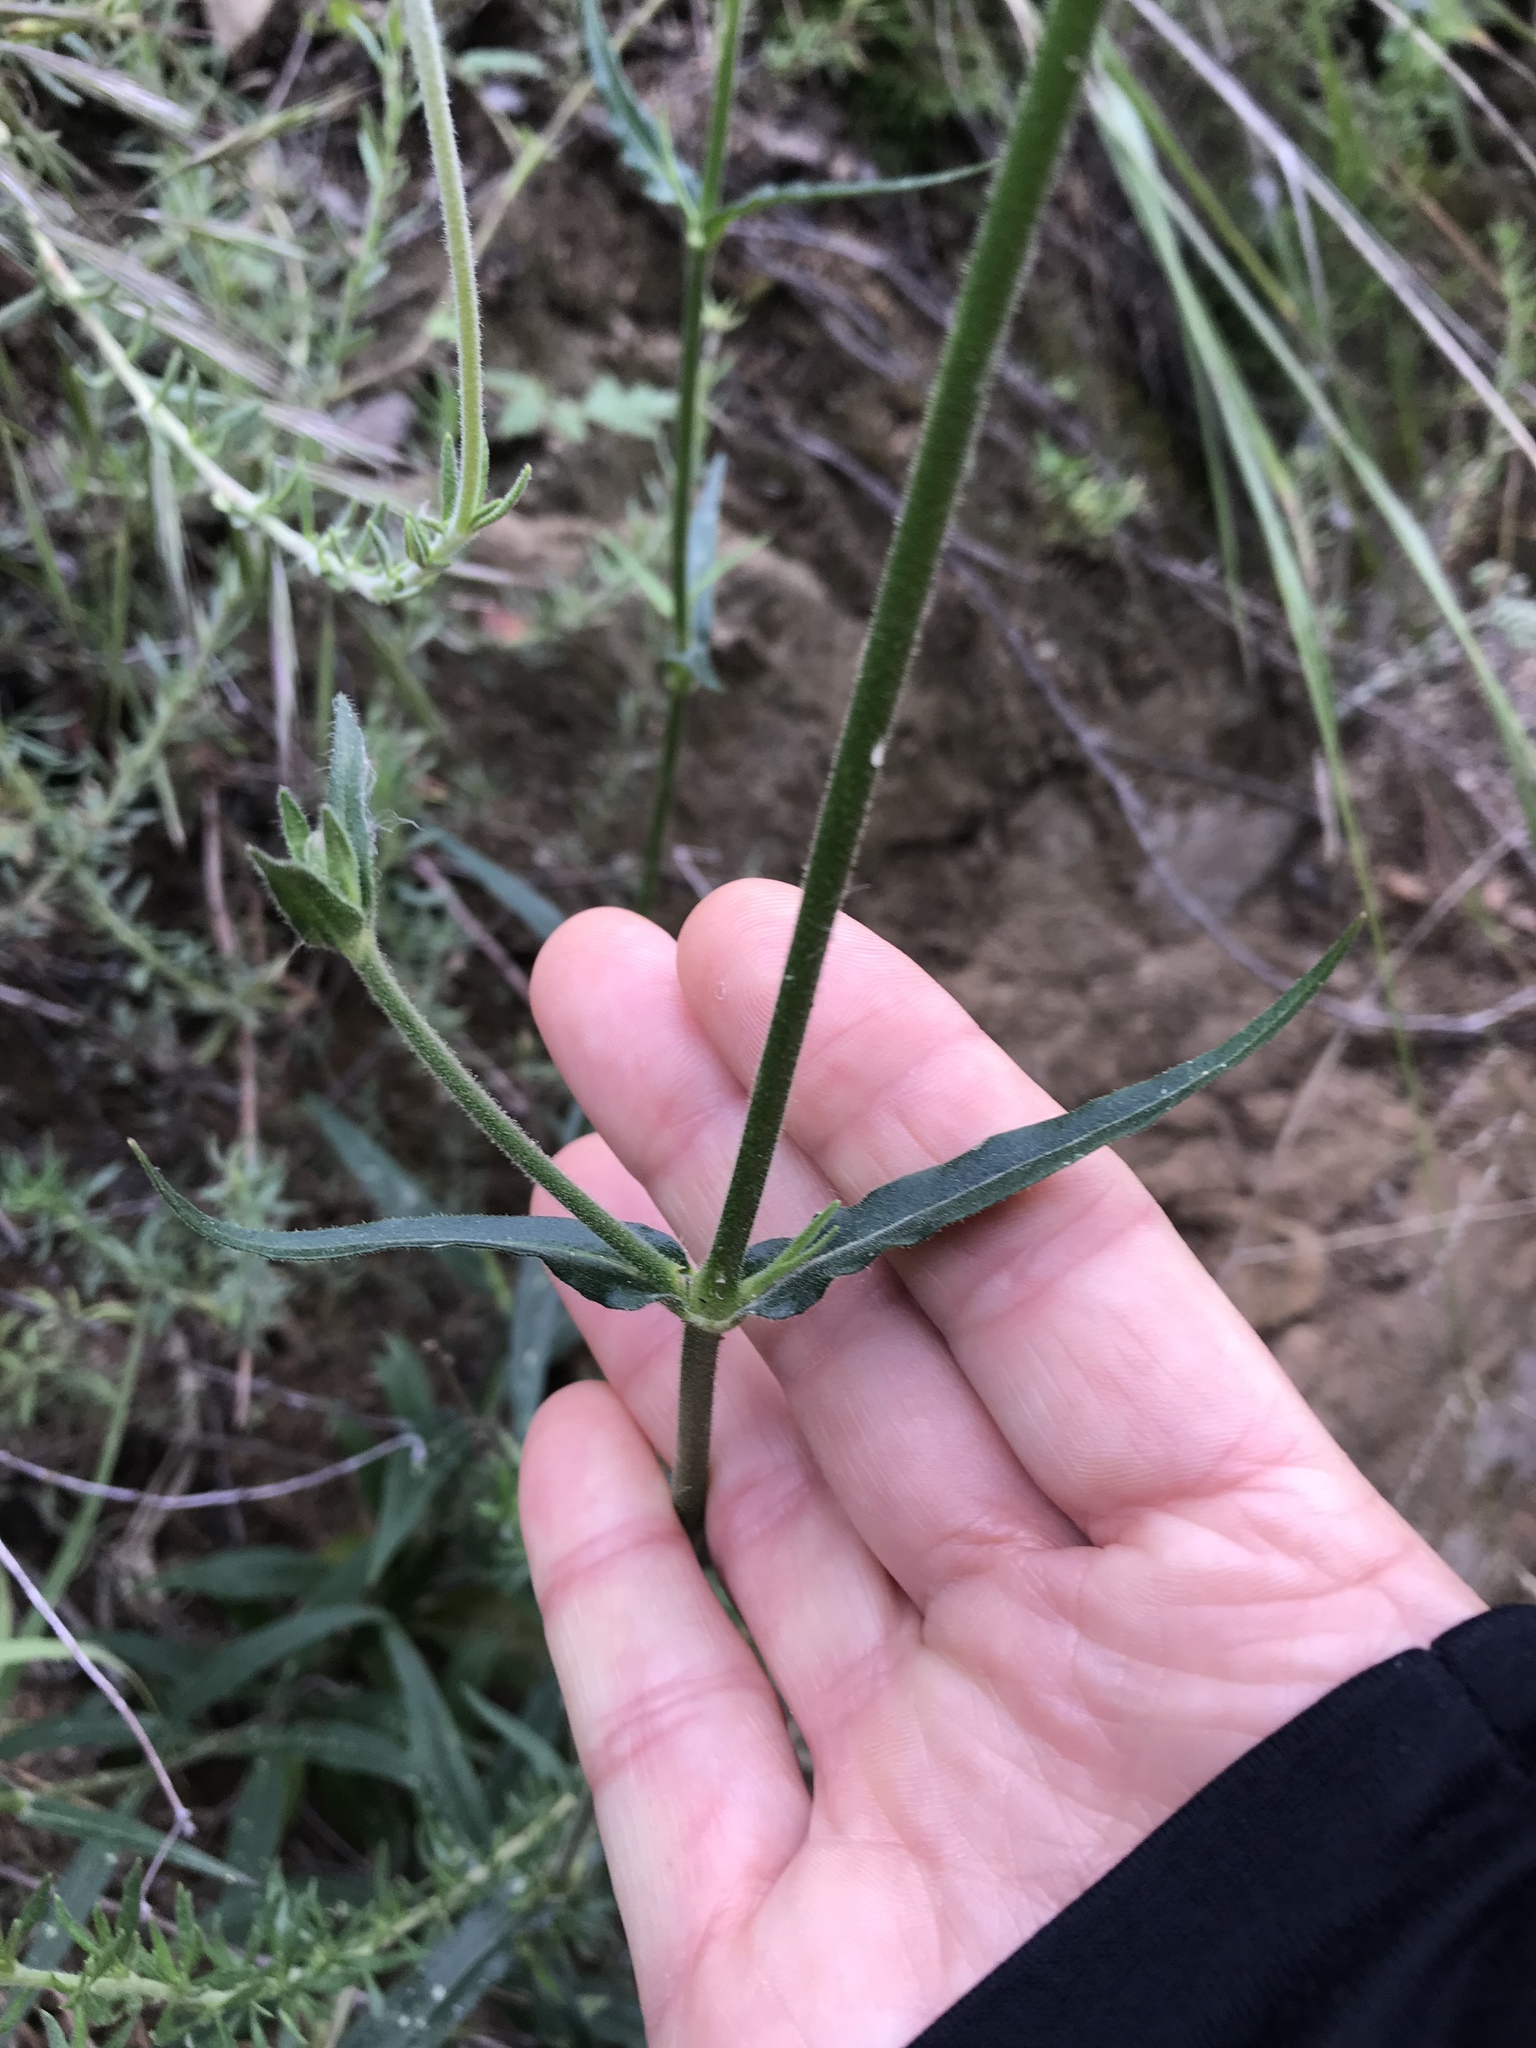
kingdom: Plantae
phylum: Tracheophyta
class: Magnoliopsida
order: Caryophyllales
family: Caryophyllaceae
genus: Silene
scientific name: Silene laciniata
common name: Indian-pink
